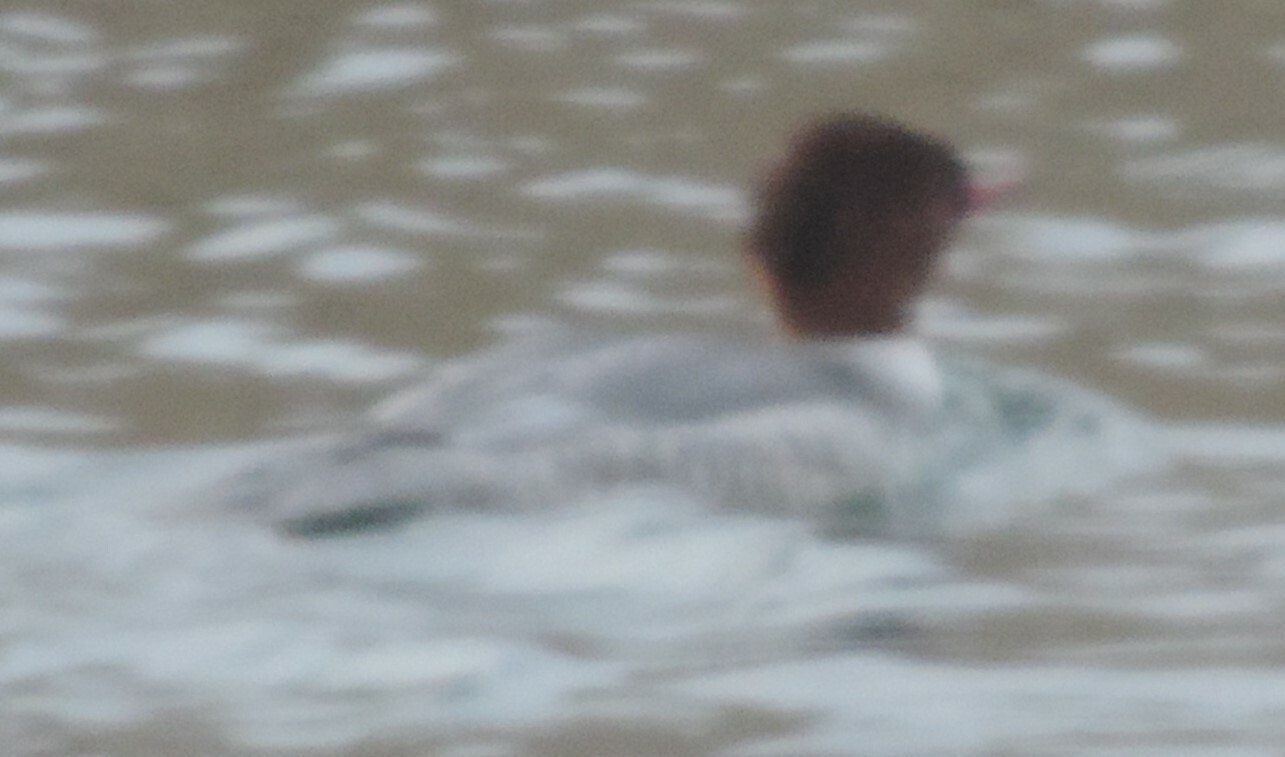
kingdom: Animalia
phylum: Chordata
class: Aves
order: Anseriformes
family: Anatidae
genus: Mergus
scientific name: Mergus merganser
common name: Common merganser
